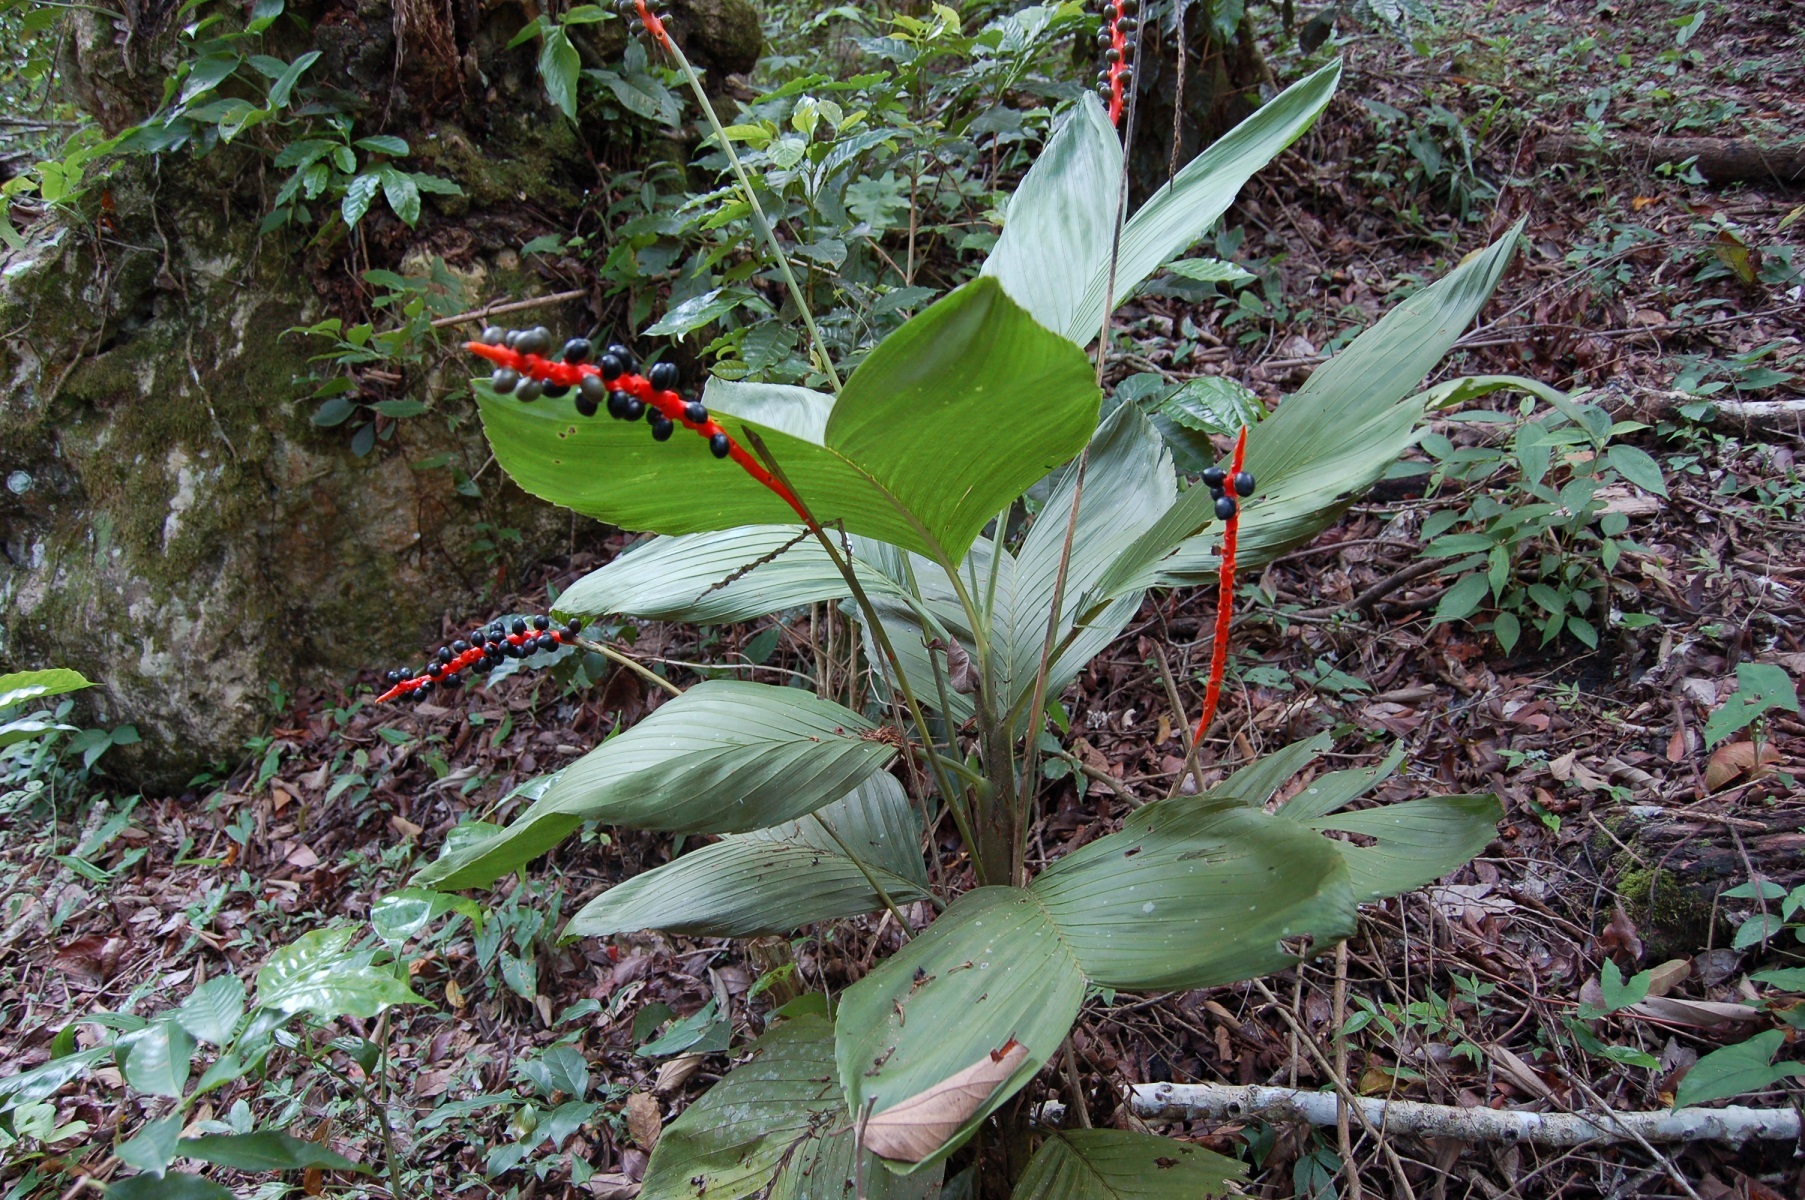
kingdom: Plantae
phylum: Tracheophyta
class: Liliopsida
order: Arecales
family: Arecaceae
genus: Chamaedorea
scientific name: Chamaedorea ernesti-augusti
